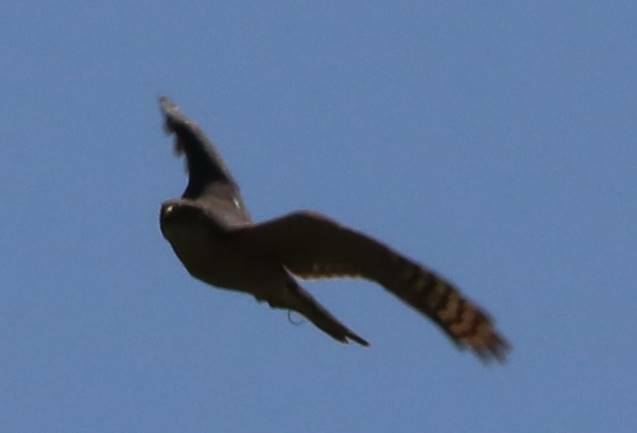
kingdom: Animalia
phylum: Chordata
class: Aves
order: Accipitriformes
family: Accipitridae
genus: Accipiter
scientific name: Accipiter nisus
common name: Eurasian sparrowhawk
